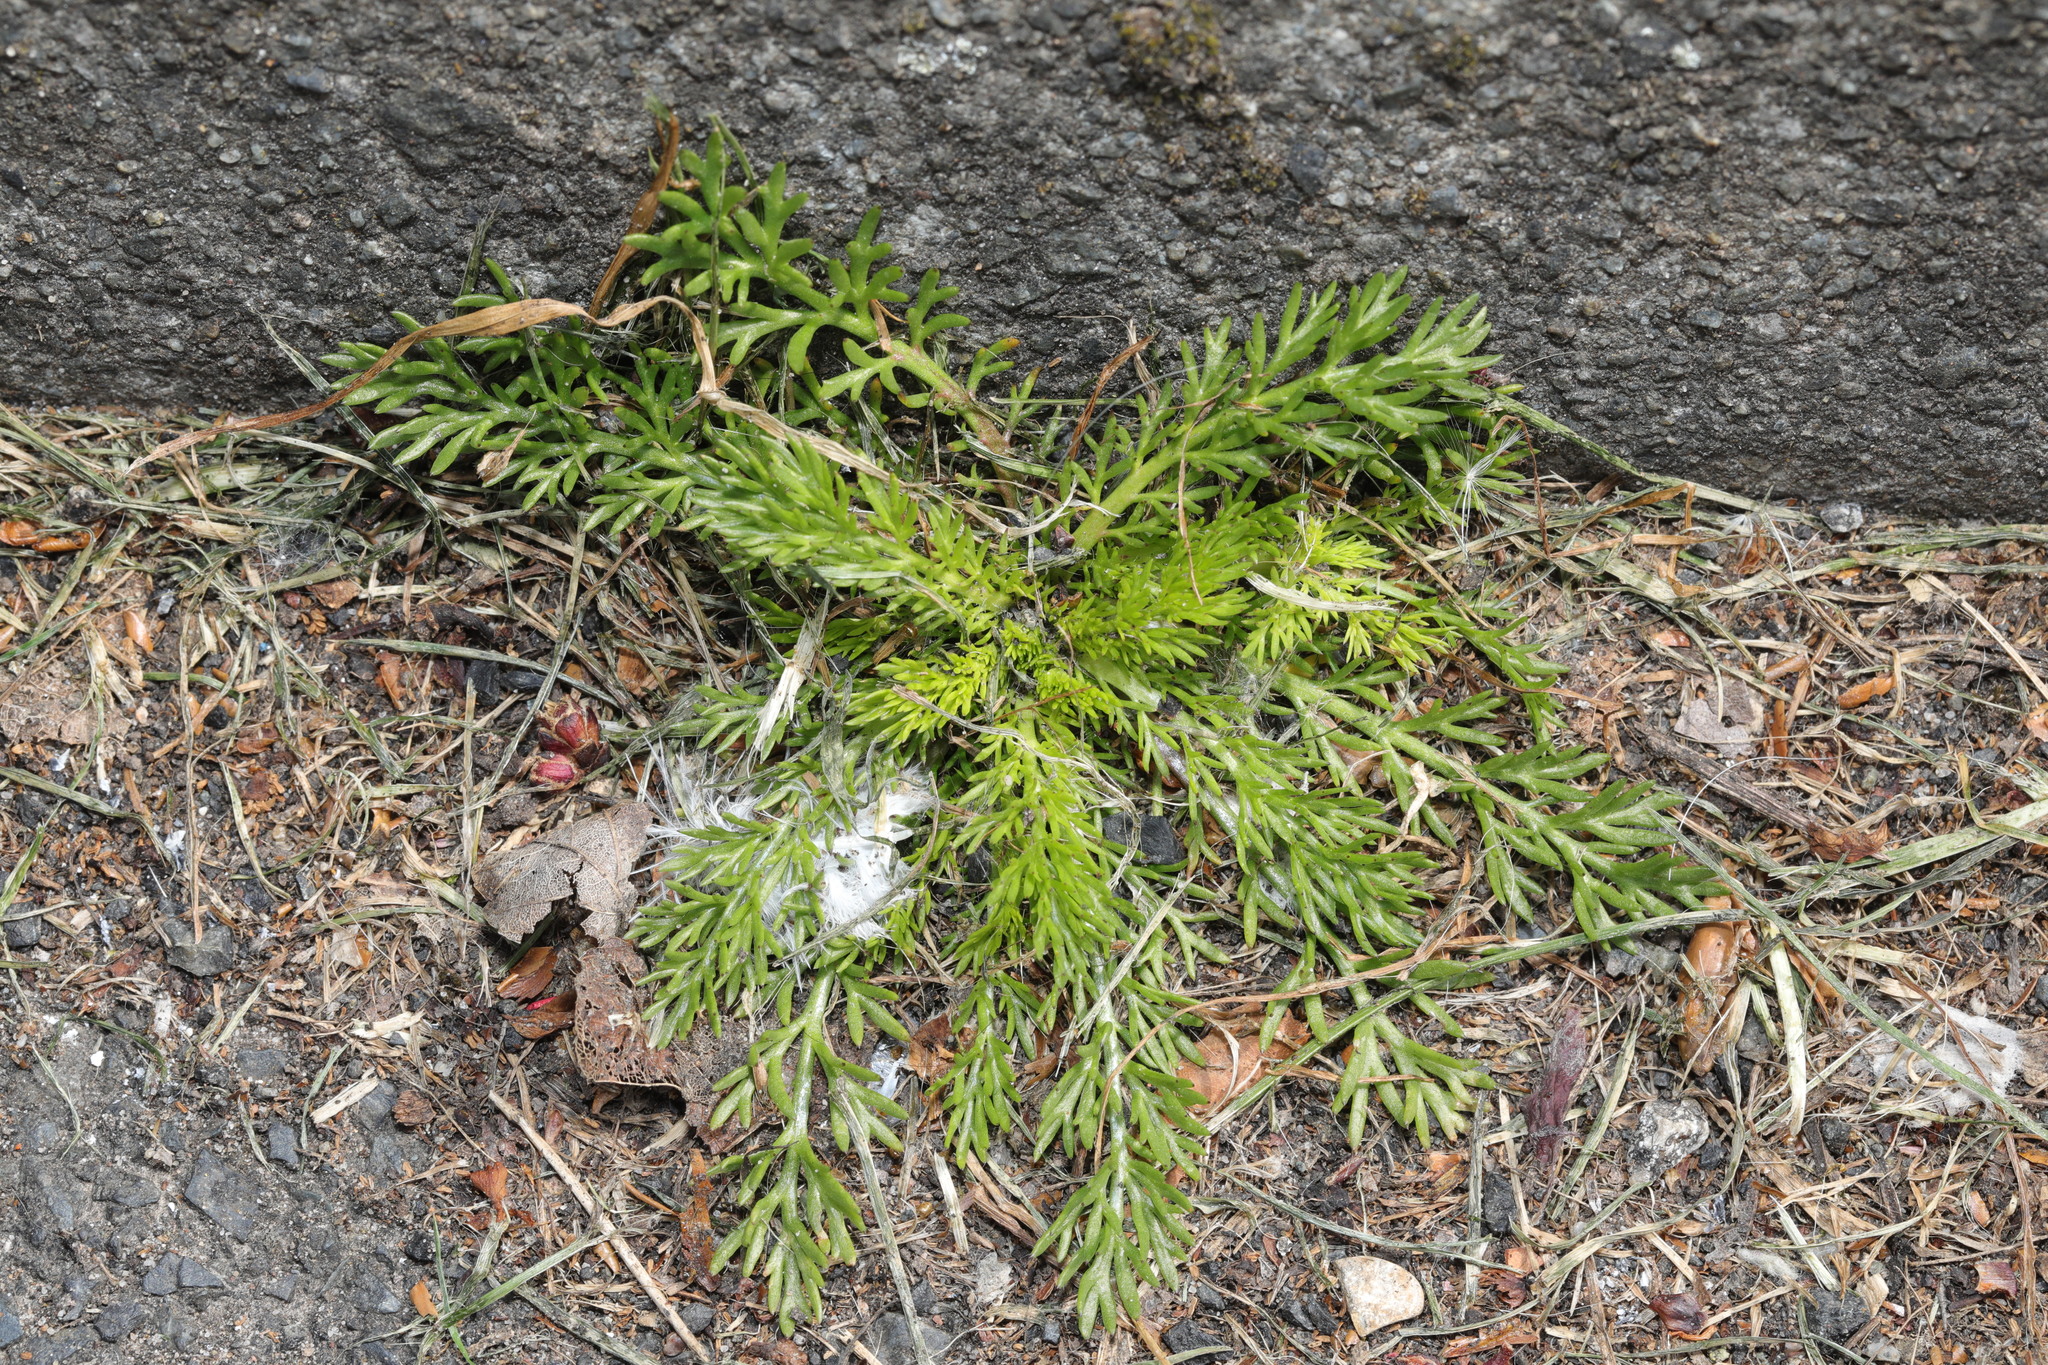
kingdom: Plantae
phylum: Tracheophyta
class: Magnoliopsida
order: Brassicales
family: Brassicaceae
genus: Lepidium
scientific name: Lepidium didymum
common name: Lesser swinecress
